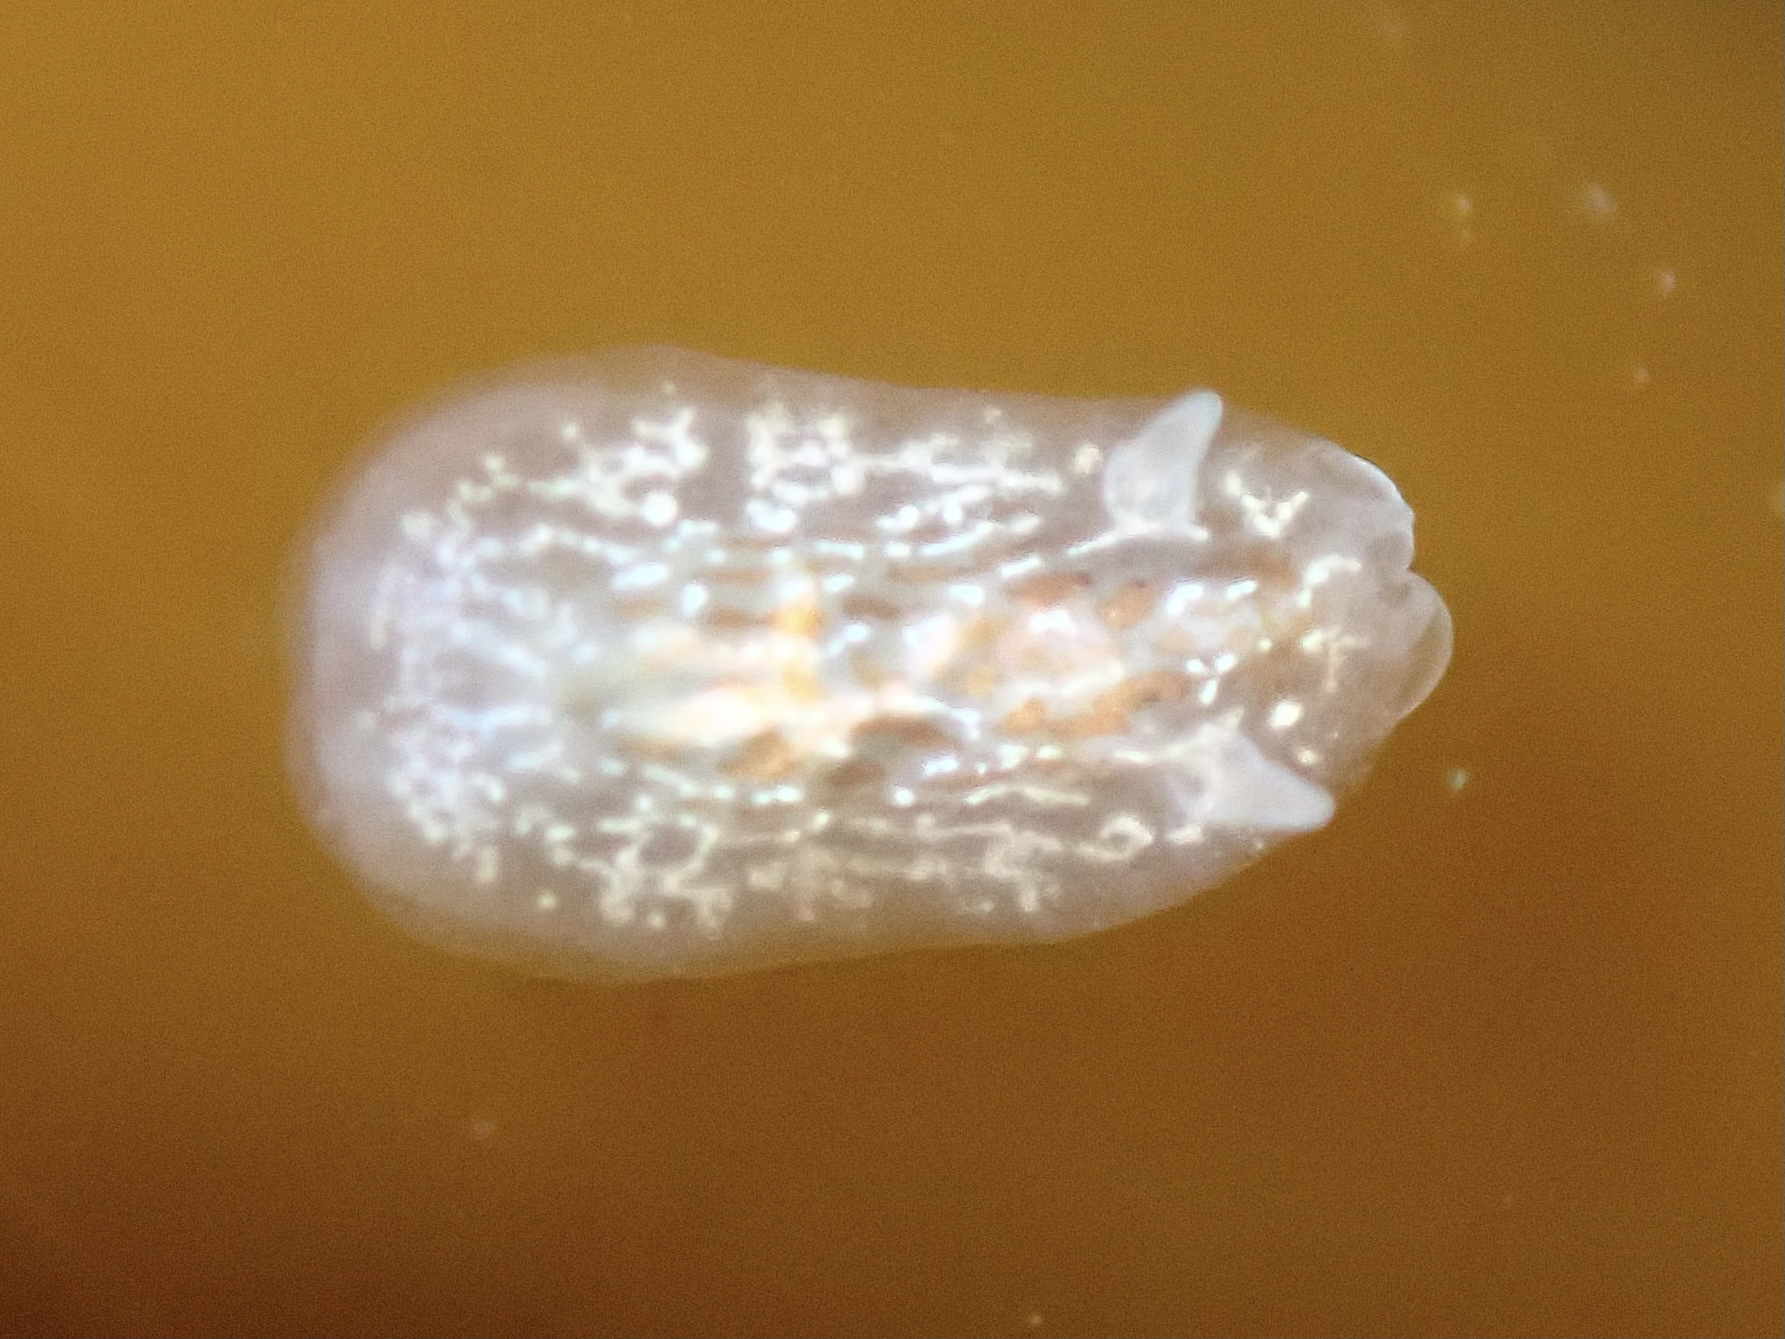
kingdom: Animalia
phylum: Mollusca
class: Gastropoda
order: Nudibranchia
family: Corambidae
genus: Corambe
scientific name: Corambe steinbergae
